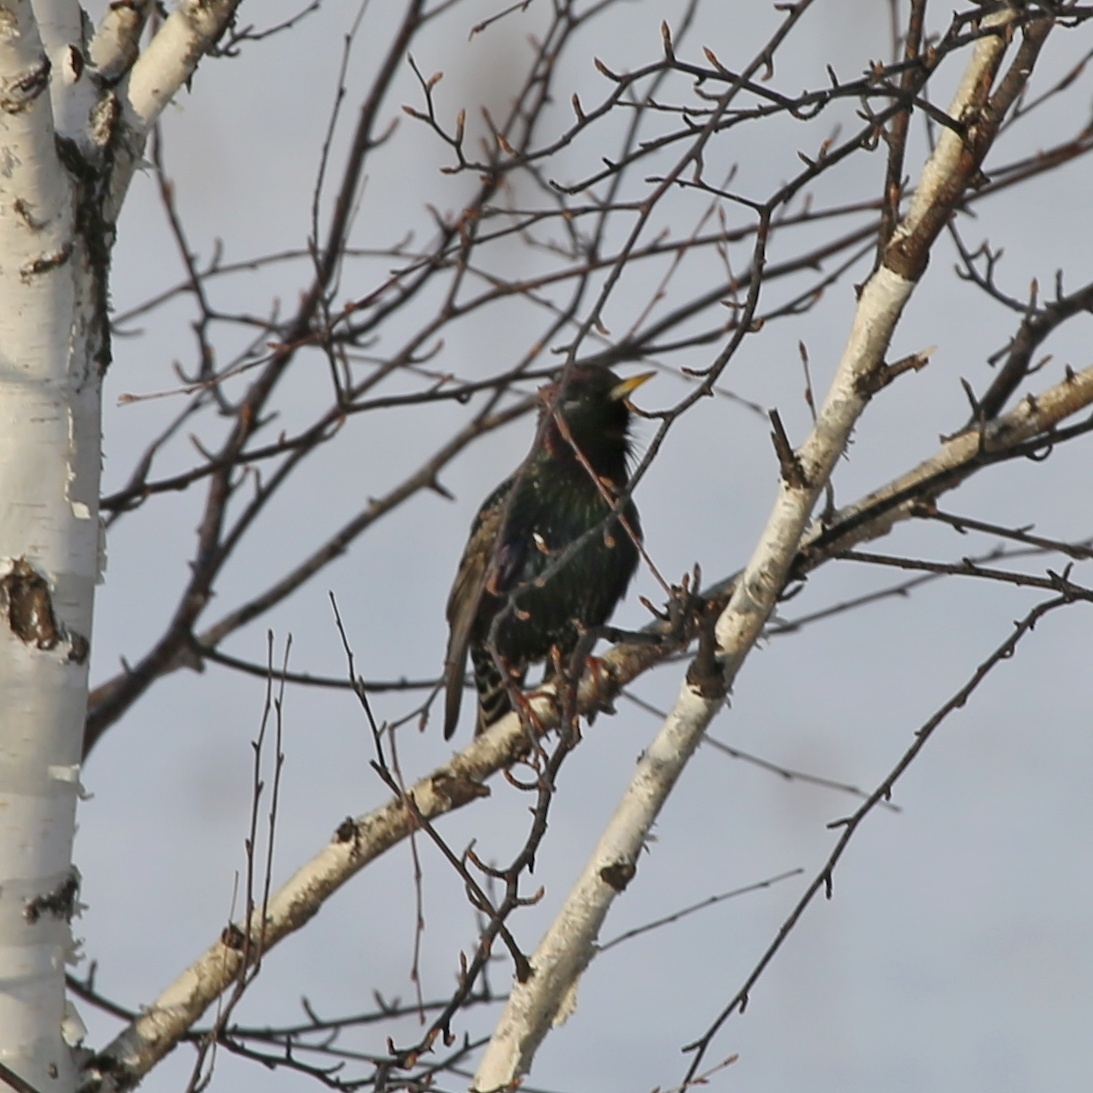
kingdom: Animalia
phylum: Chordata
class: Aves
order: Passeriformes
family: Sturnidae
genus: Sturnus
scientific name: Sturnus vulgaris
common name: Common starling
